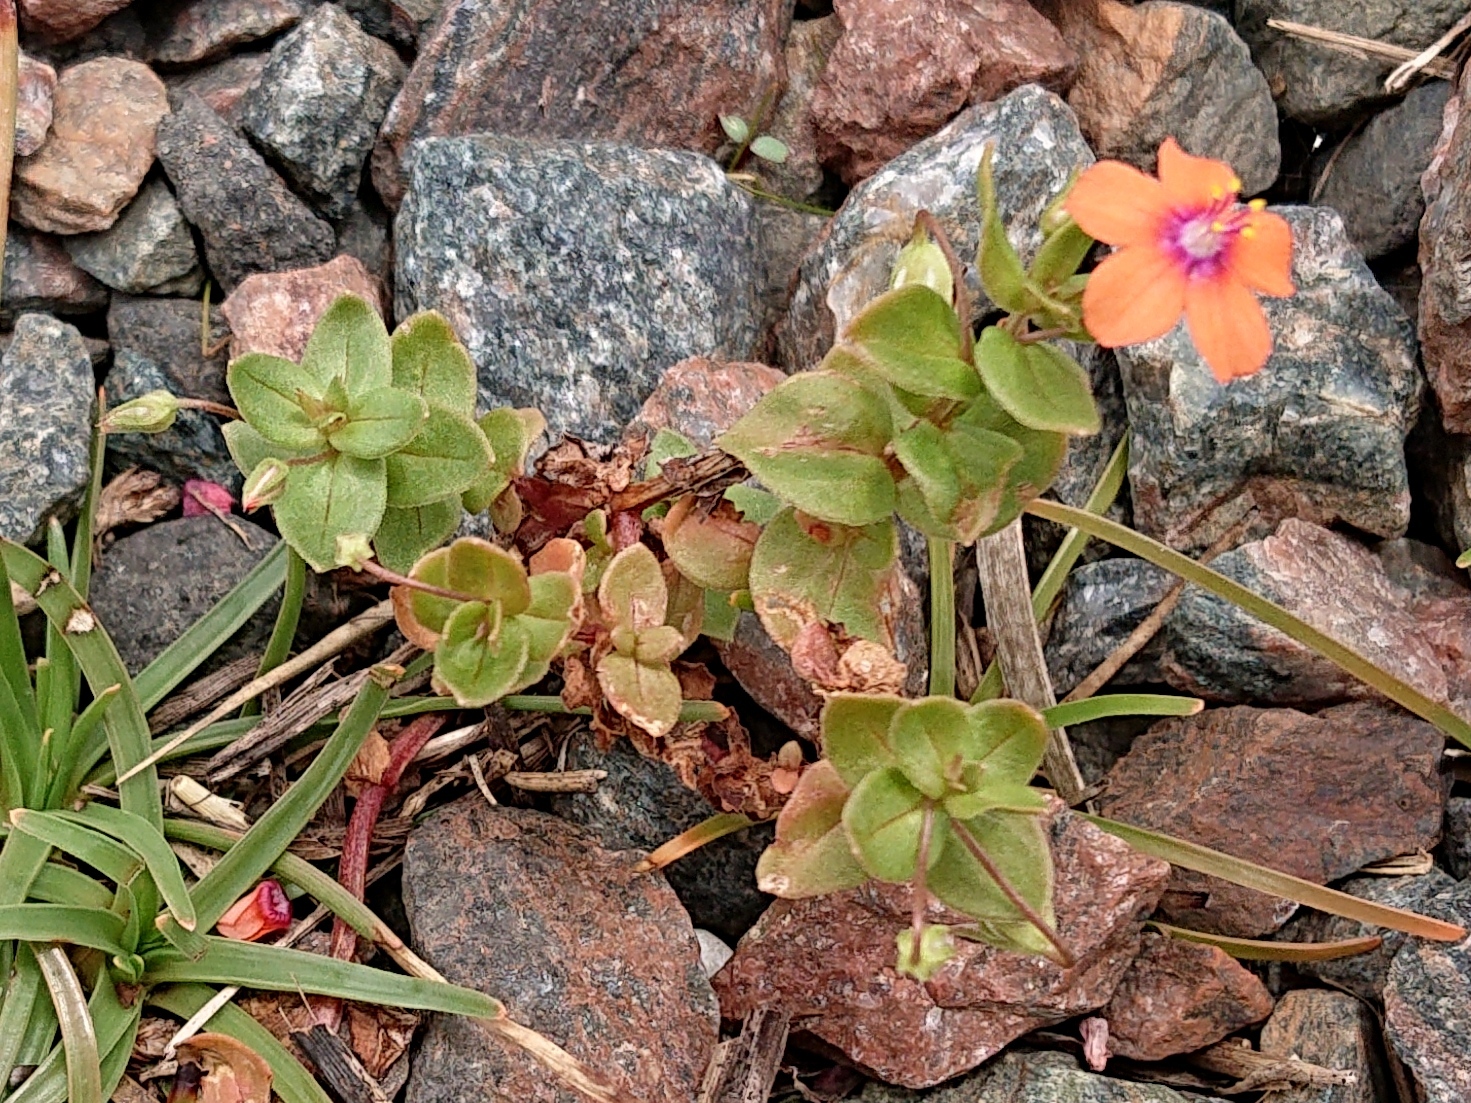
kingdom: Plantae
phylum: Tracheophyta
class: Magnoliopsida
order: Ericales
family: Primulaceae
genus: Lysimachia
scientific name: Lysimachia arvensis
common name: Scarlet pimpernel
